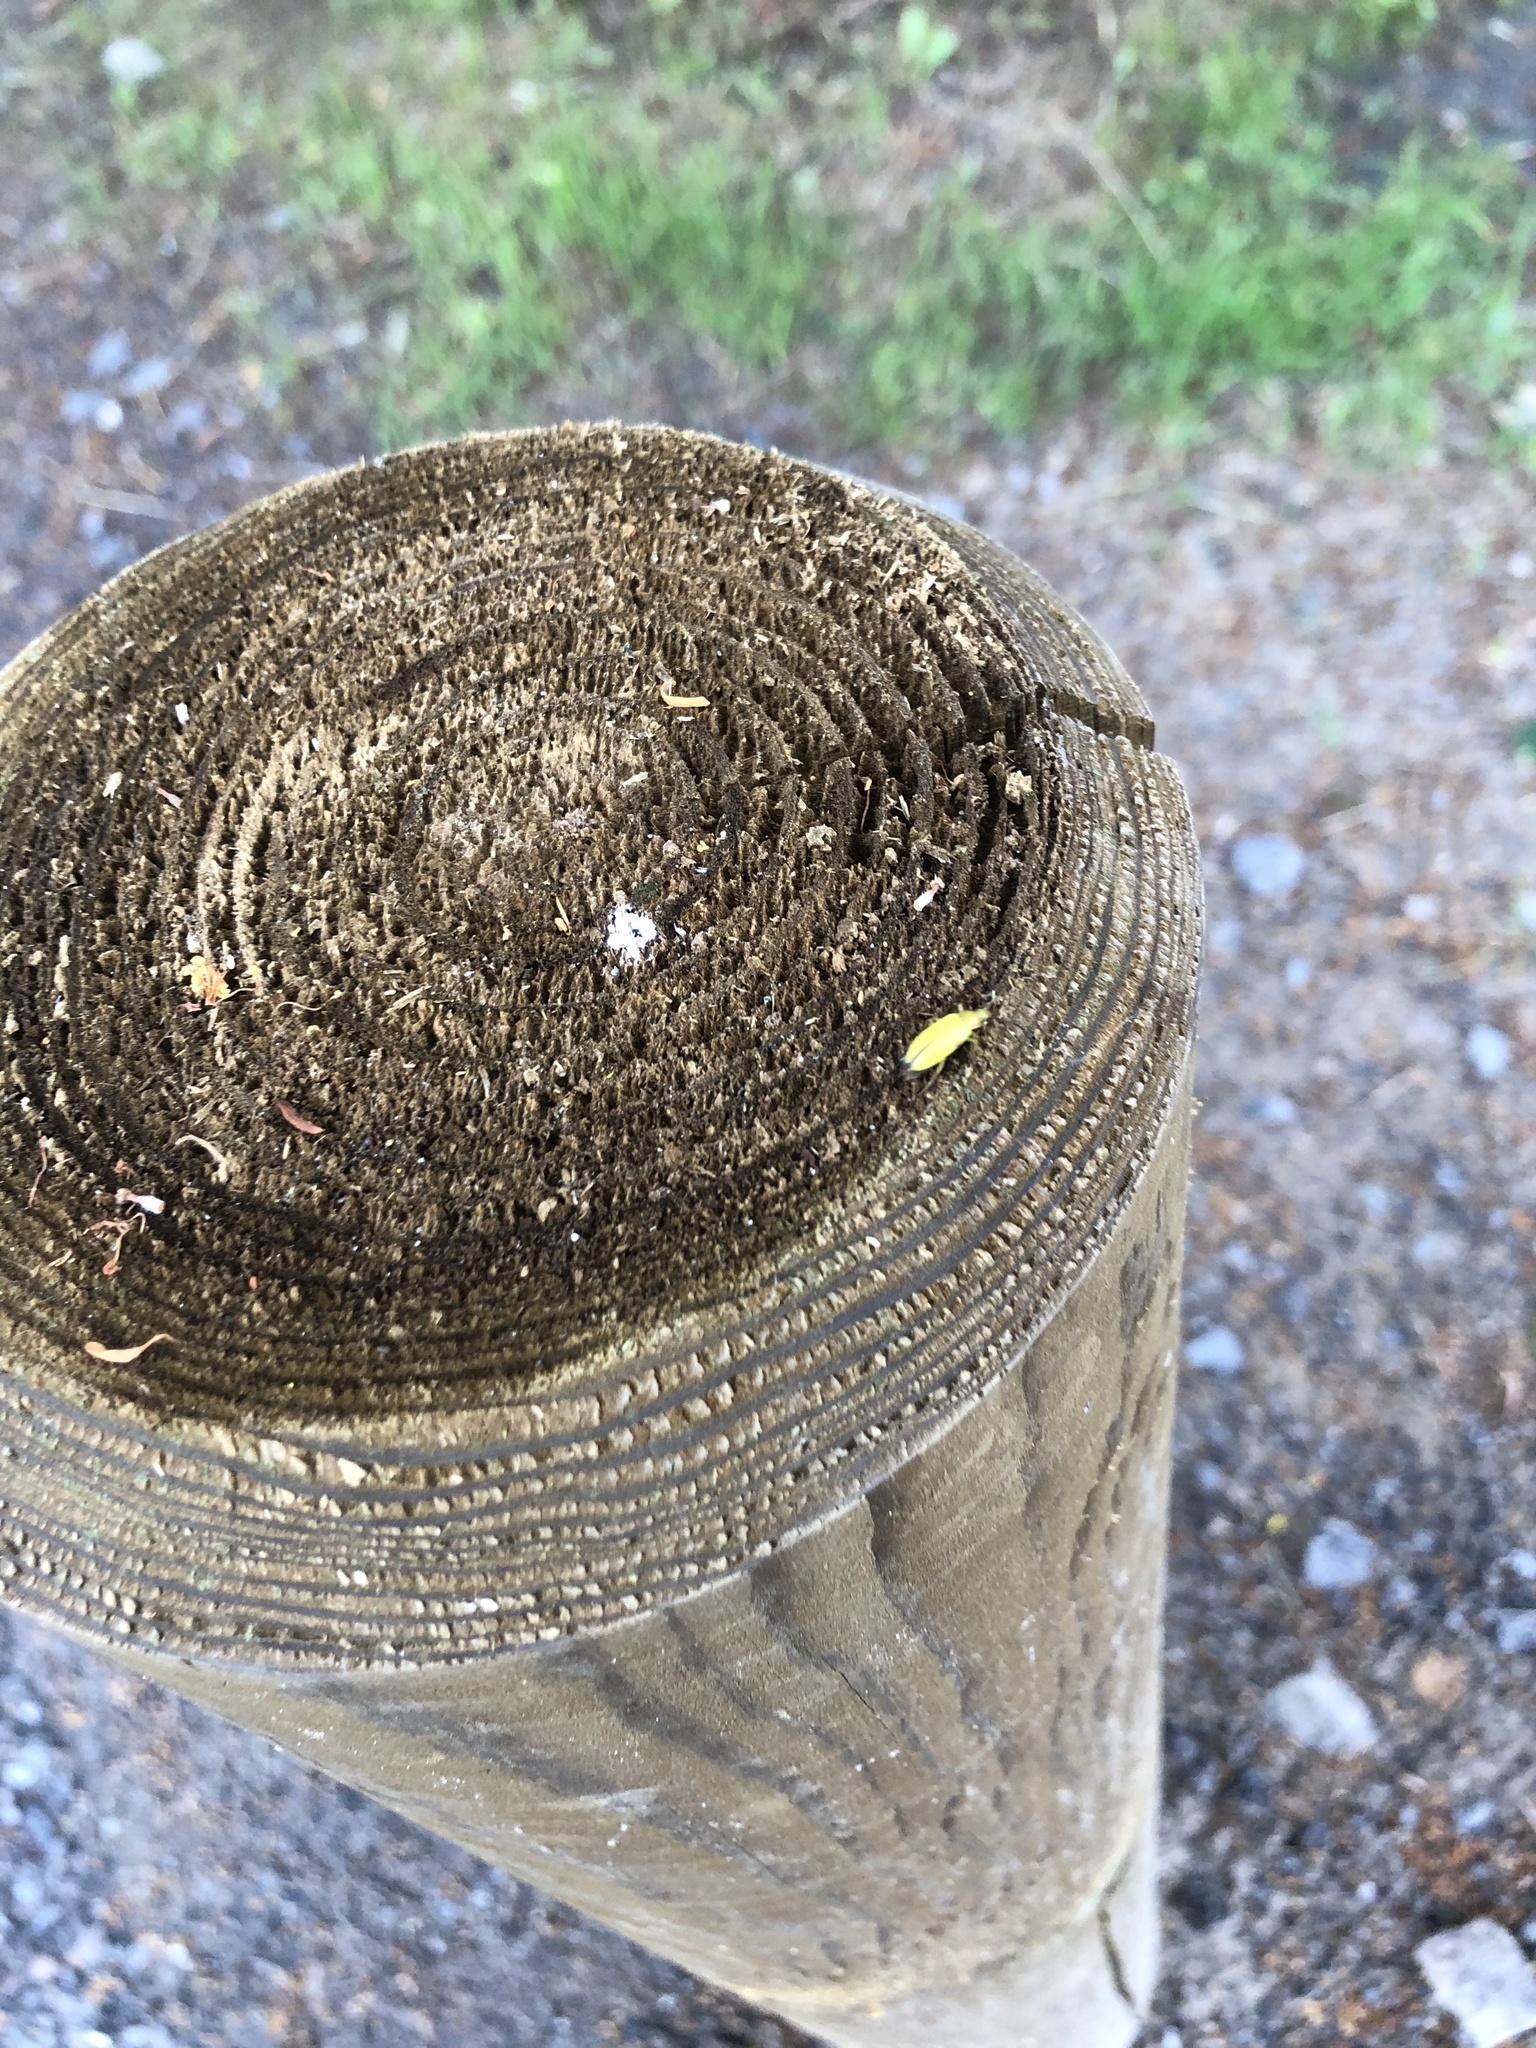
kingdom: Animalia
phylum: Arthropoda
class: Insecta
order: Coleoptera
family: Tenebrionidae
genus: Cteniopus
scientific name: Cteniopus sulphureus
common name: Sulphur beetle
